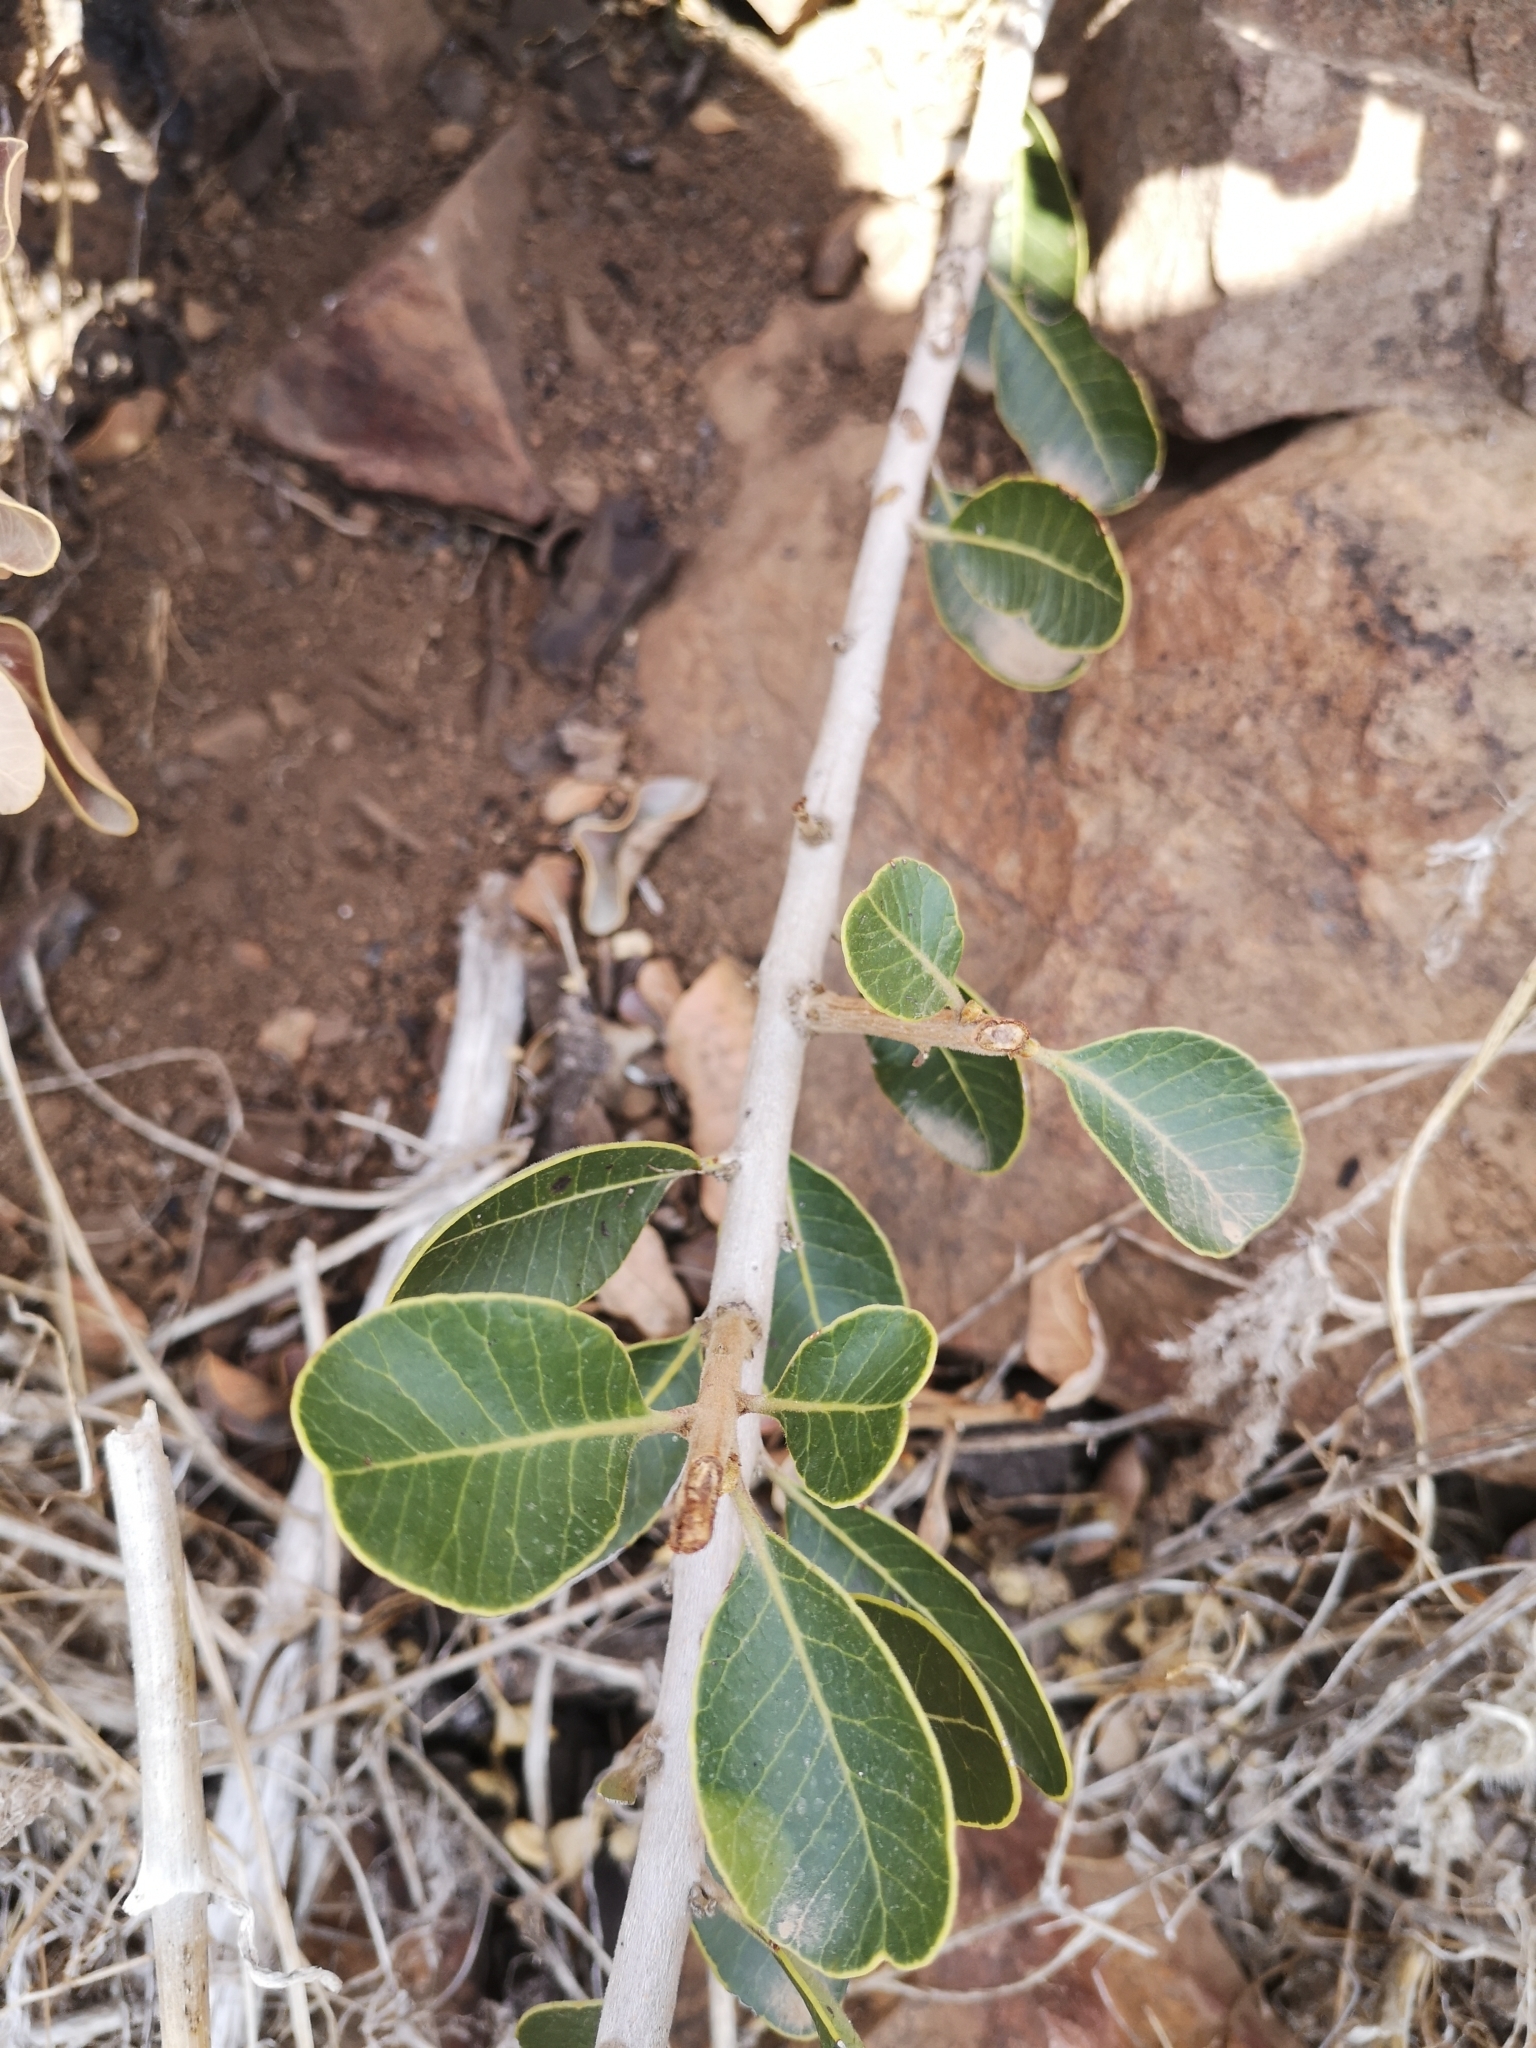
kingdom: Plantae
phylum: Tracheophyta
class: Magnoliopsida
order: Sapindales
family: Anacardiaceae
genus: Lithraea
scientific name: Lithraea caustica
